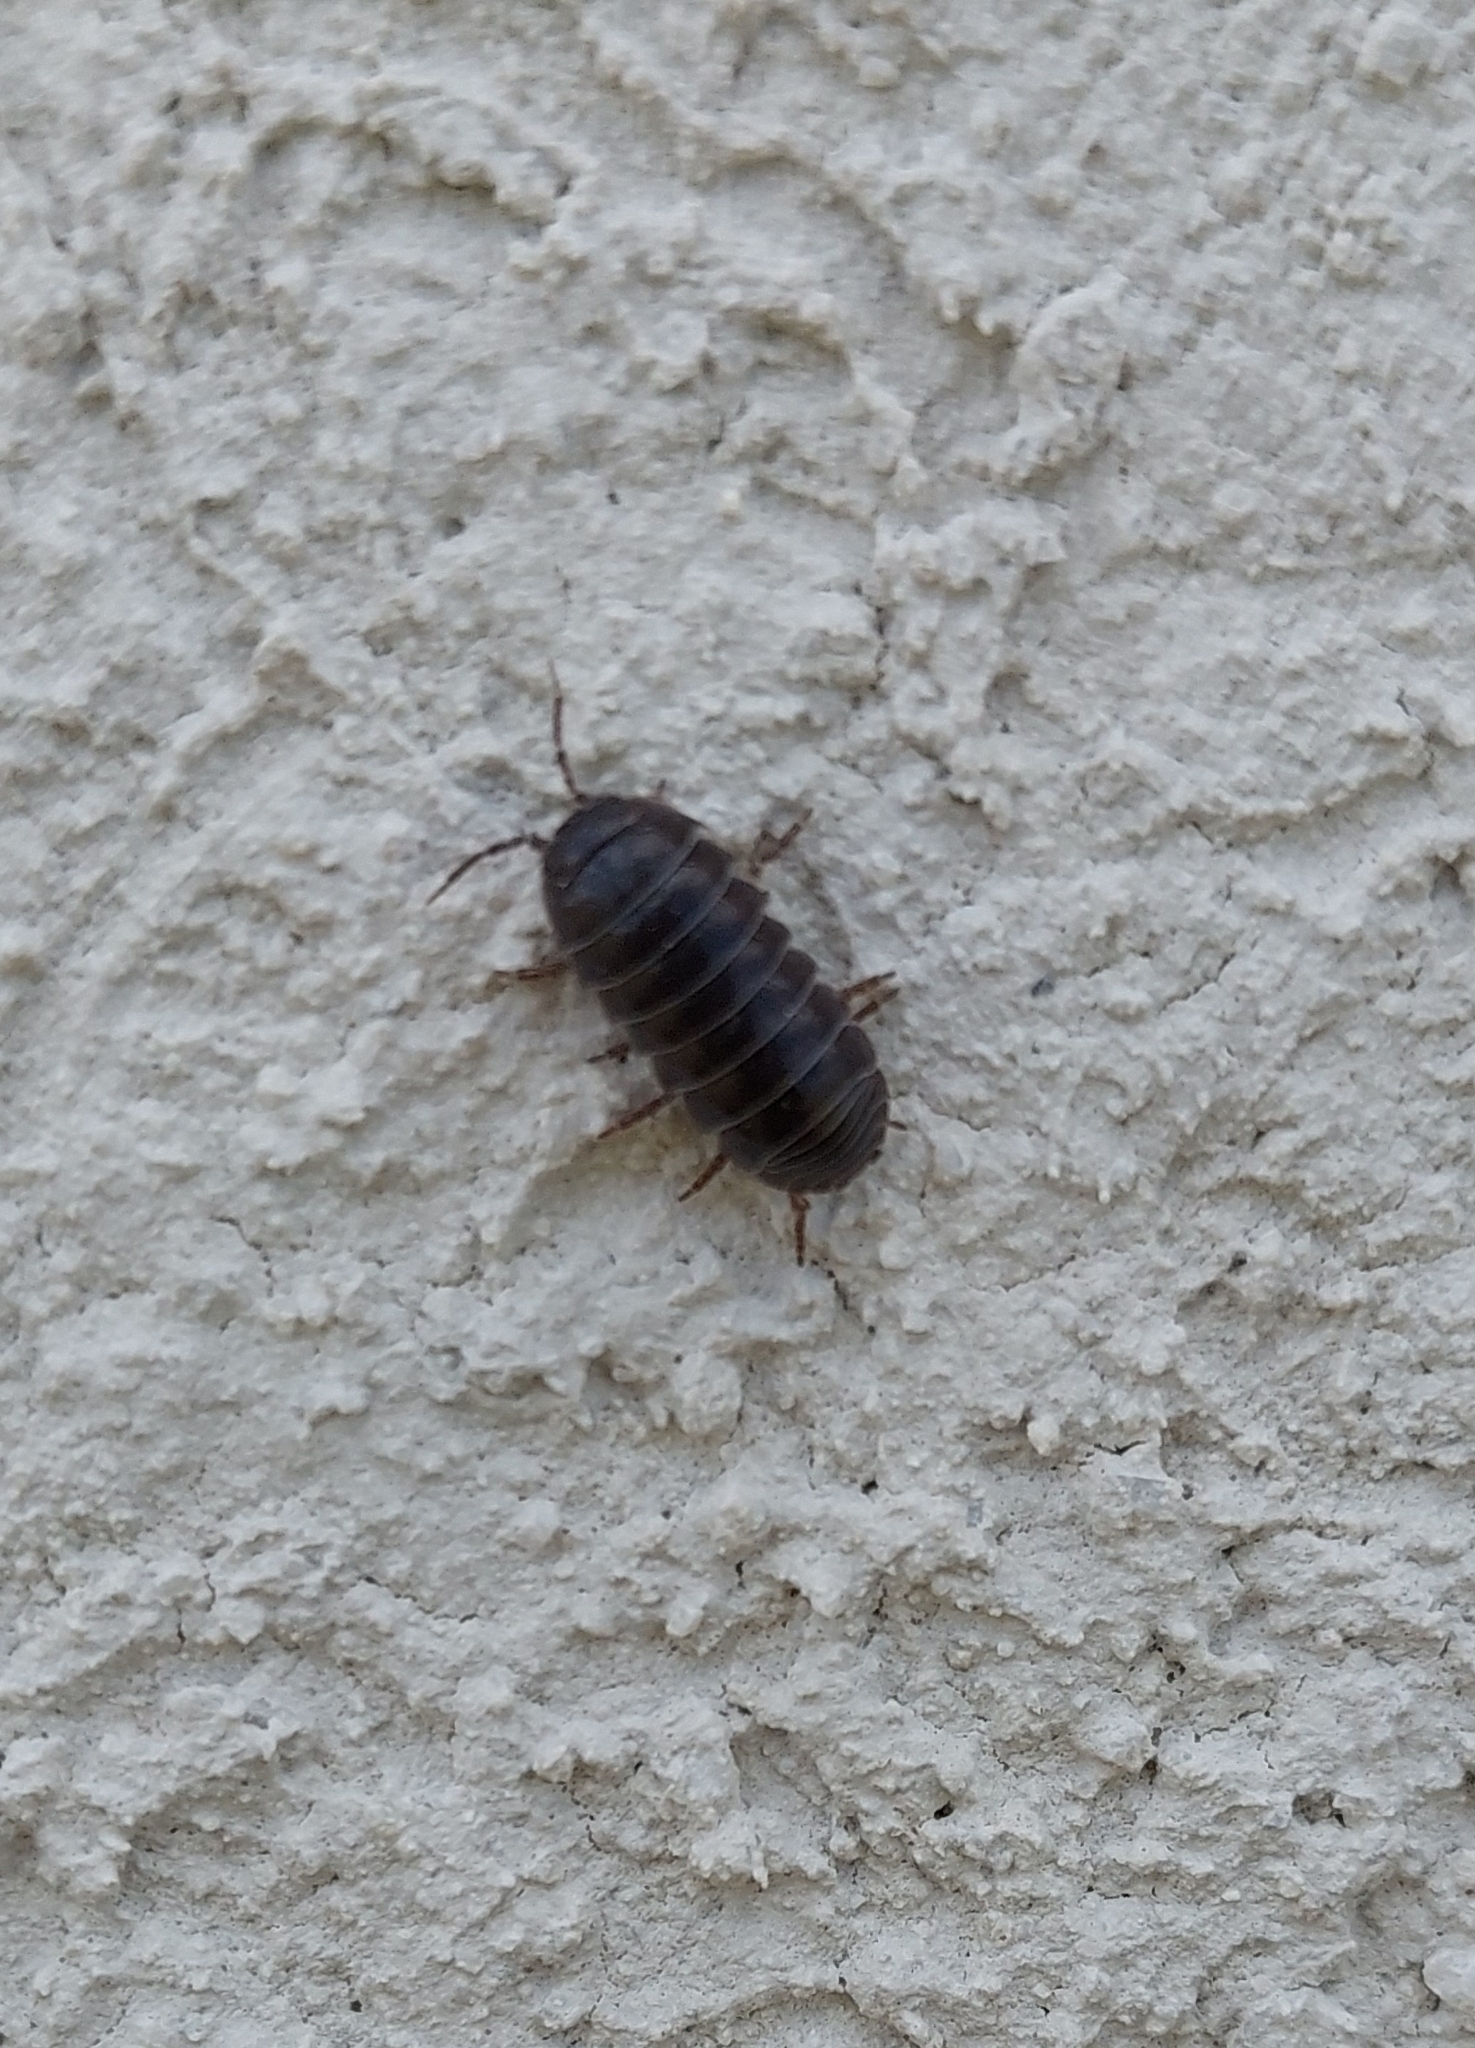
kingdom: Animalia
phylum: Arthropoda
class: Malacostraca
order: Isopoda
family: Armadillidiidae
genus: Armadillidium
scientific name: Armadillidium vulgare
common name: Common pill woodlouse
